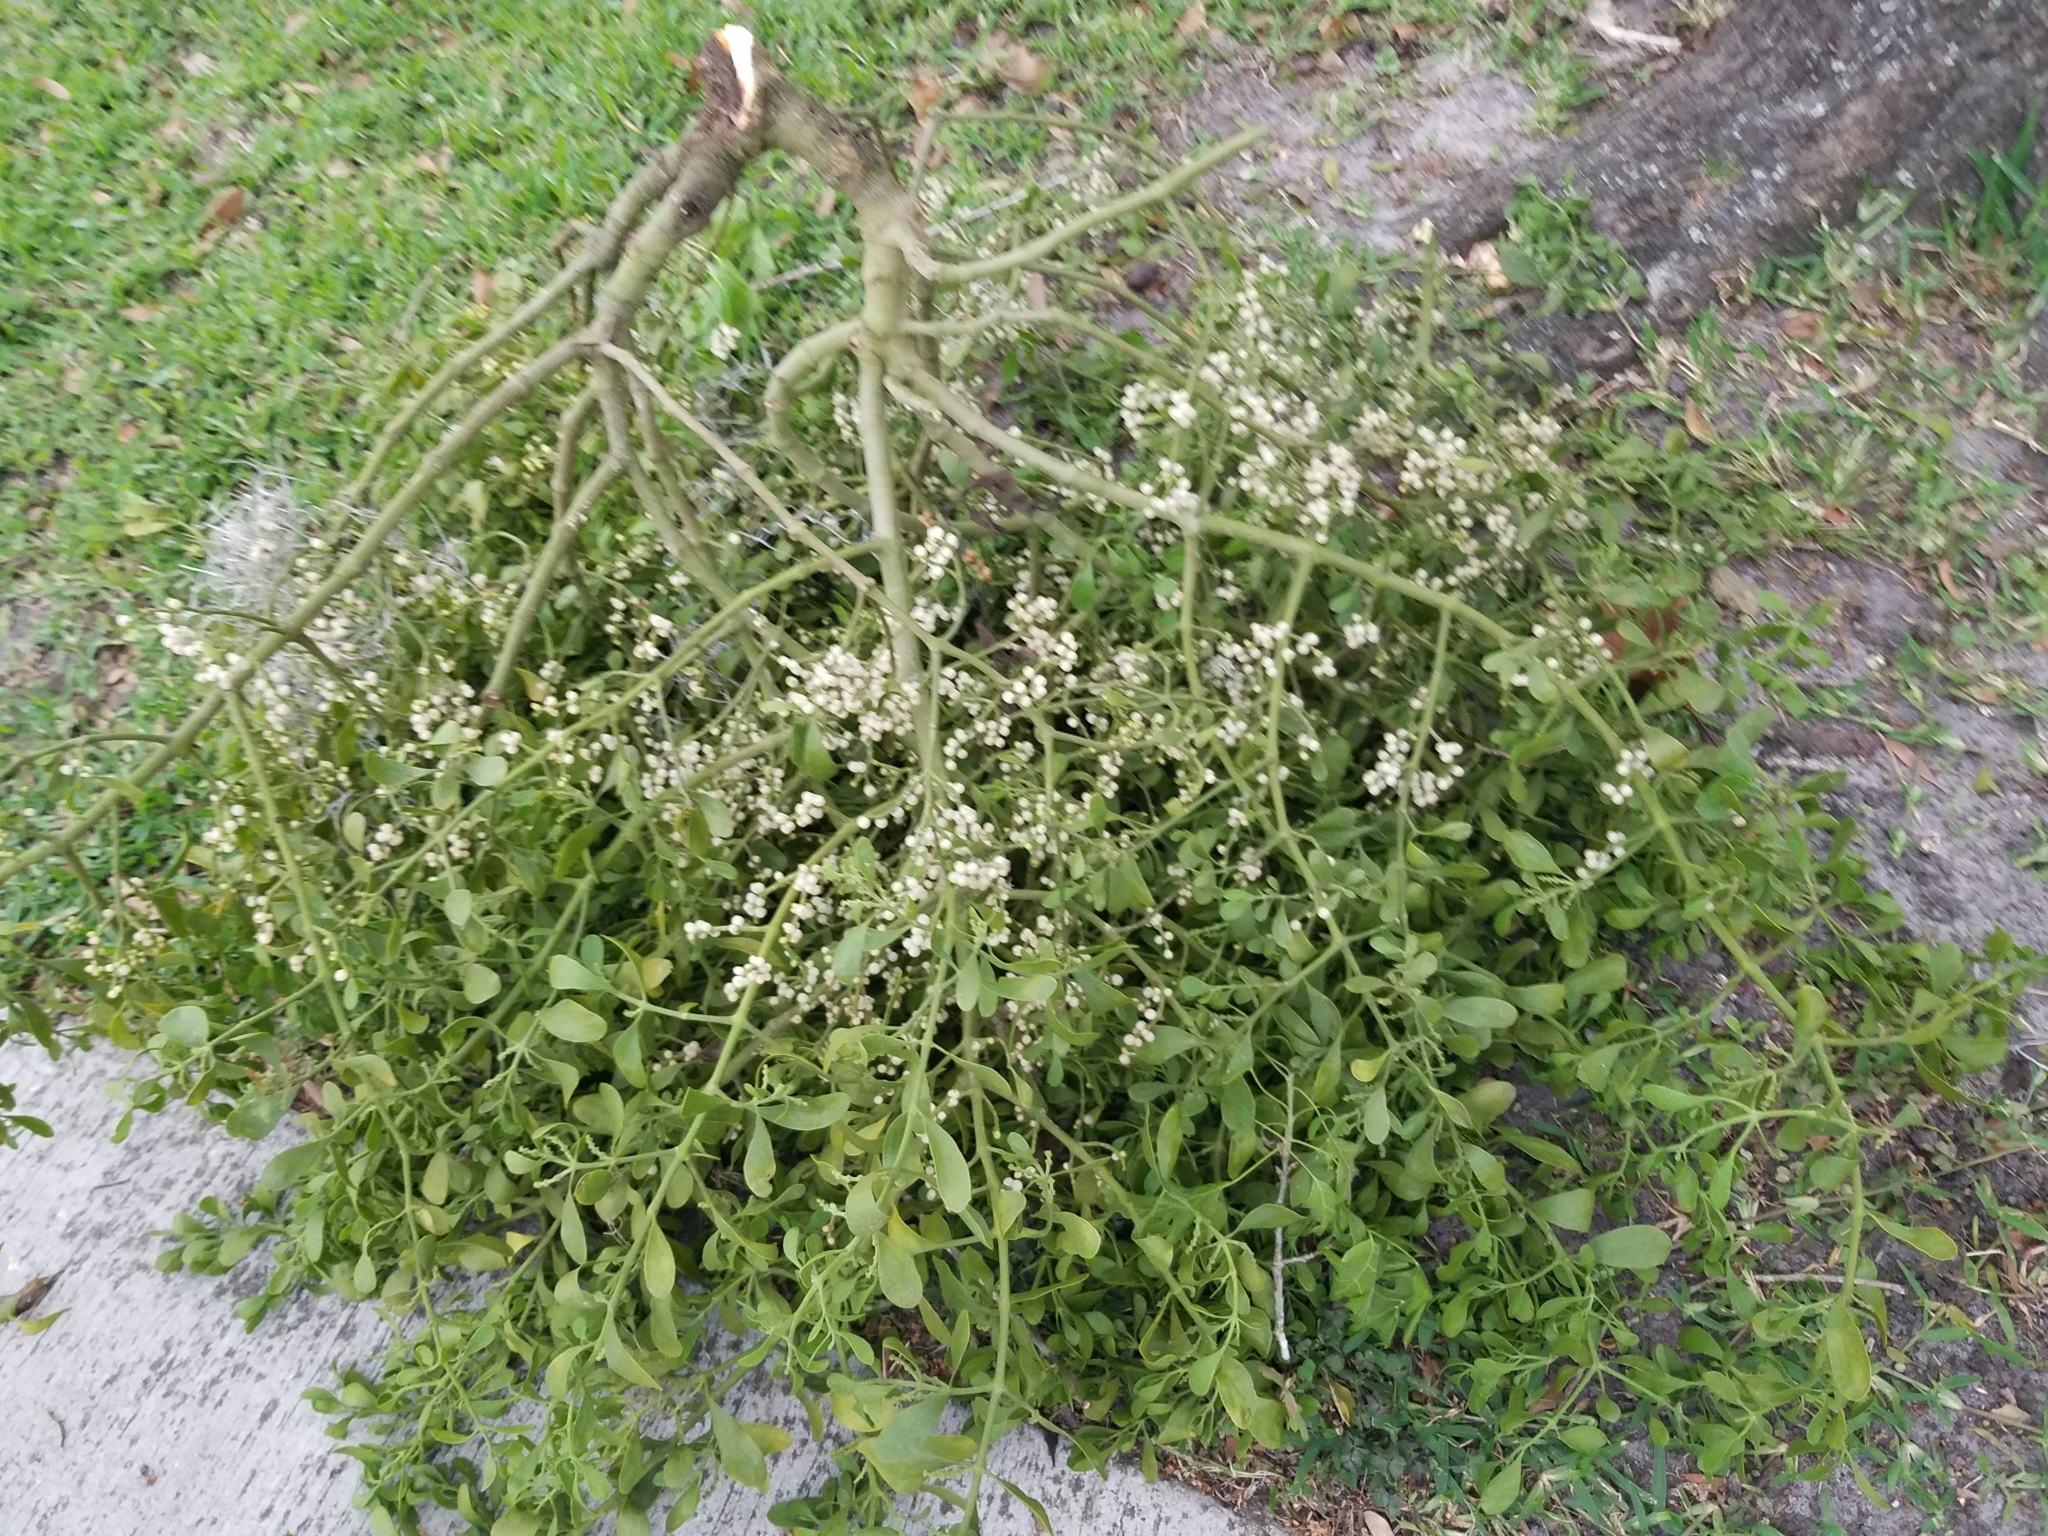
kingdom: Plantae
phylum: Tracheophyta
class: Magnoliopsida
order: Santalales
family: Viscaceae
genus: Phoradendron
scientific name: Phoradendron leucarpum
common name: Pacific mistletoe
